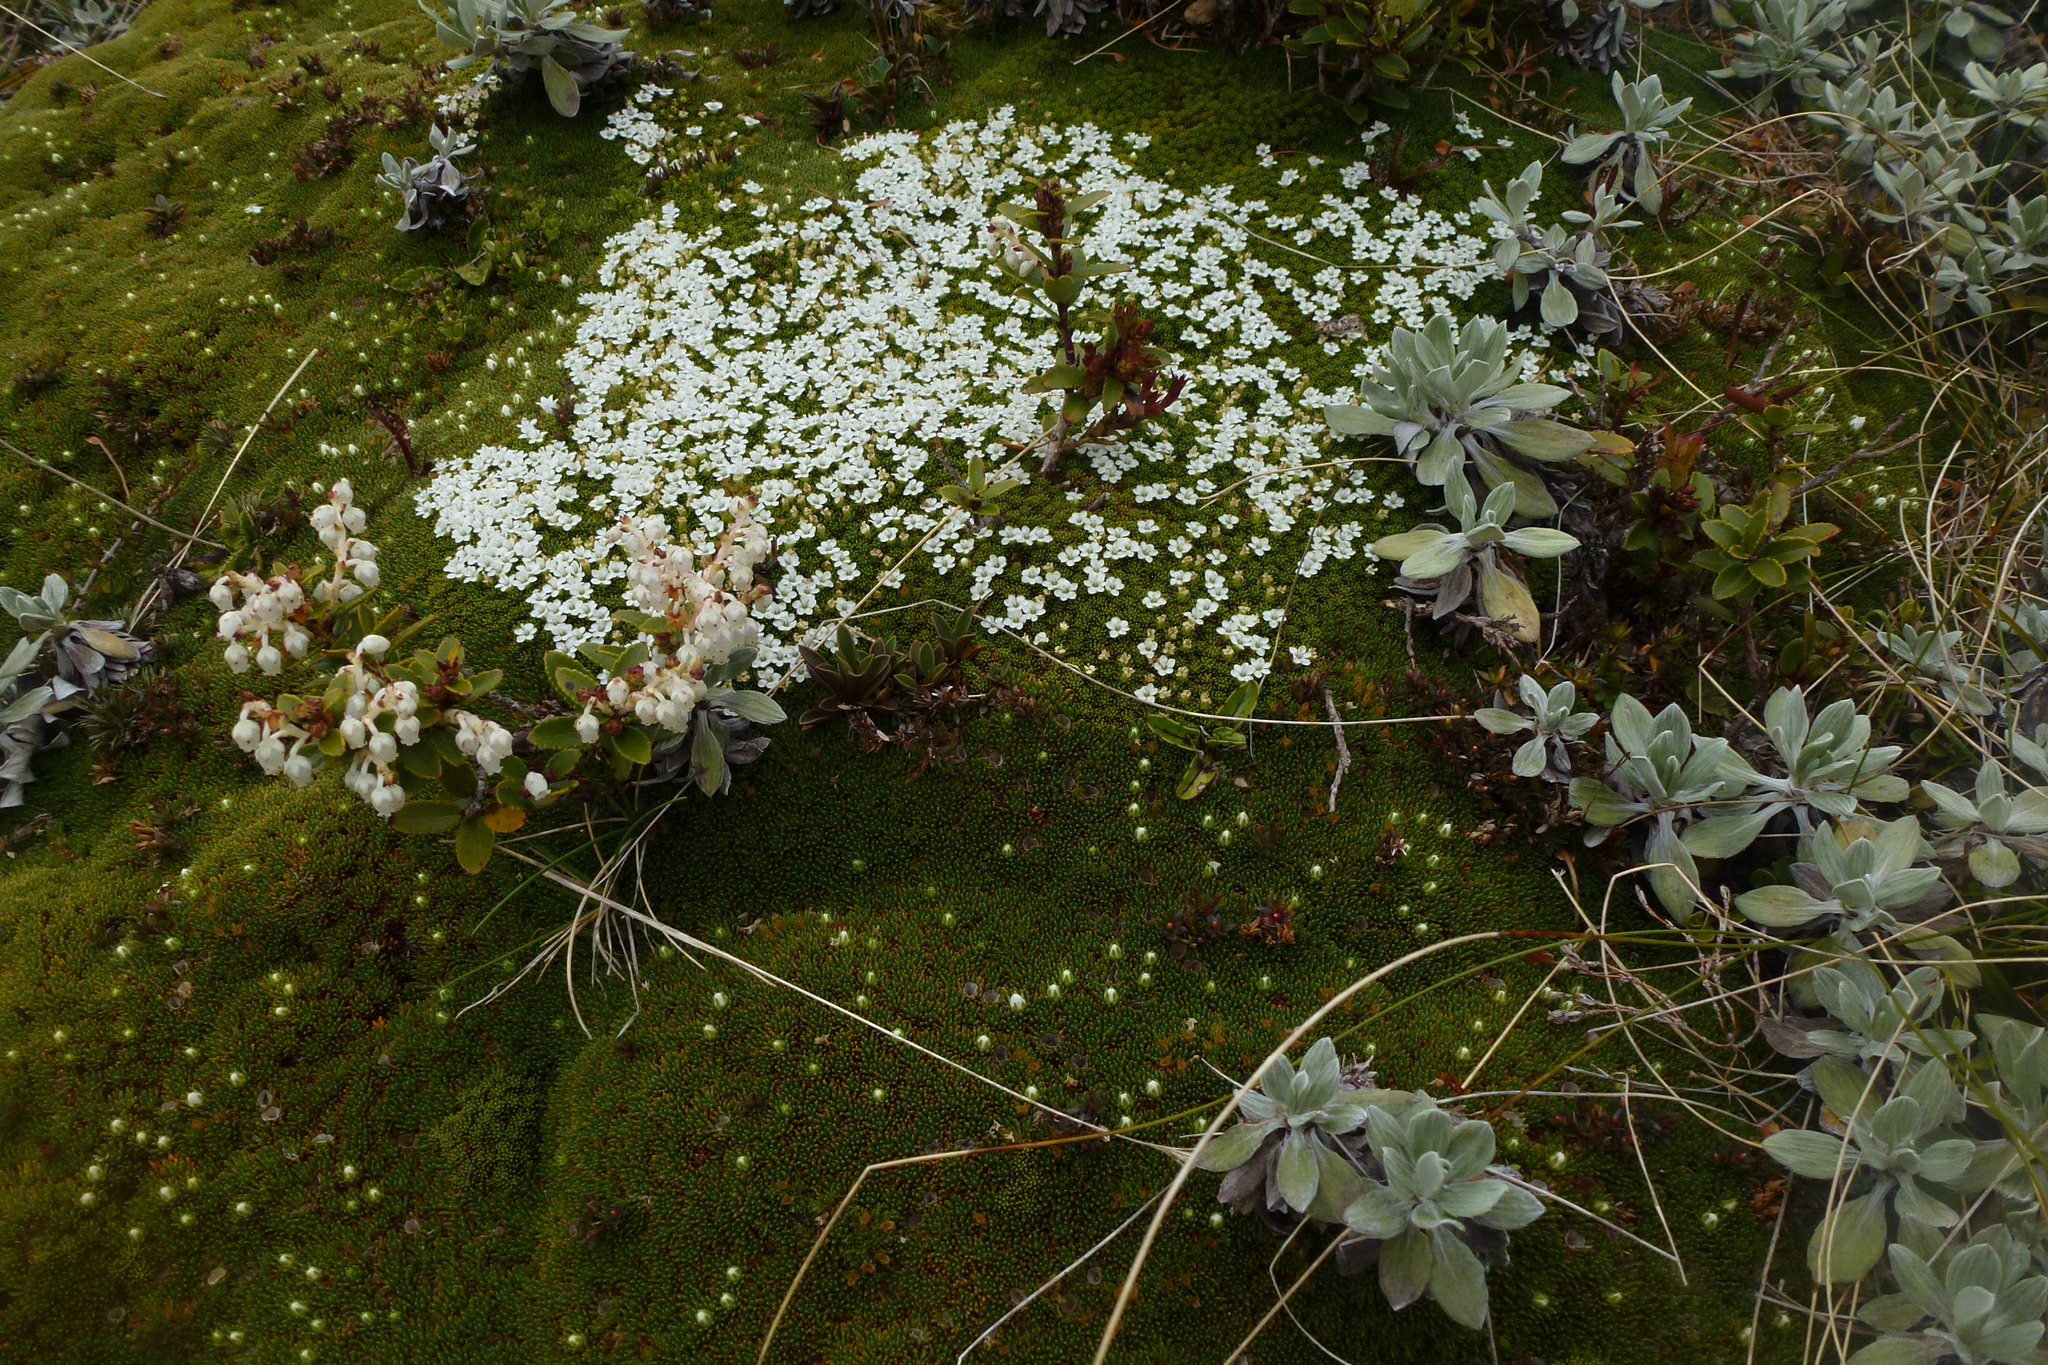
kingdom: Plantae
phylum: Tracheophyta
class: Magnoliopsida
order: Asterales
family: Stylidiaceae
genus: Phyllachne
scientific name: Phyllachne colensoi
